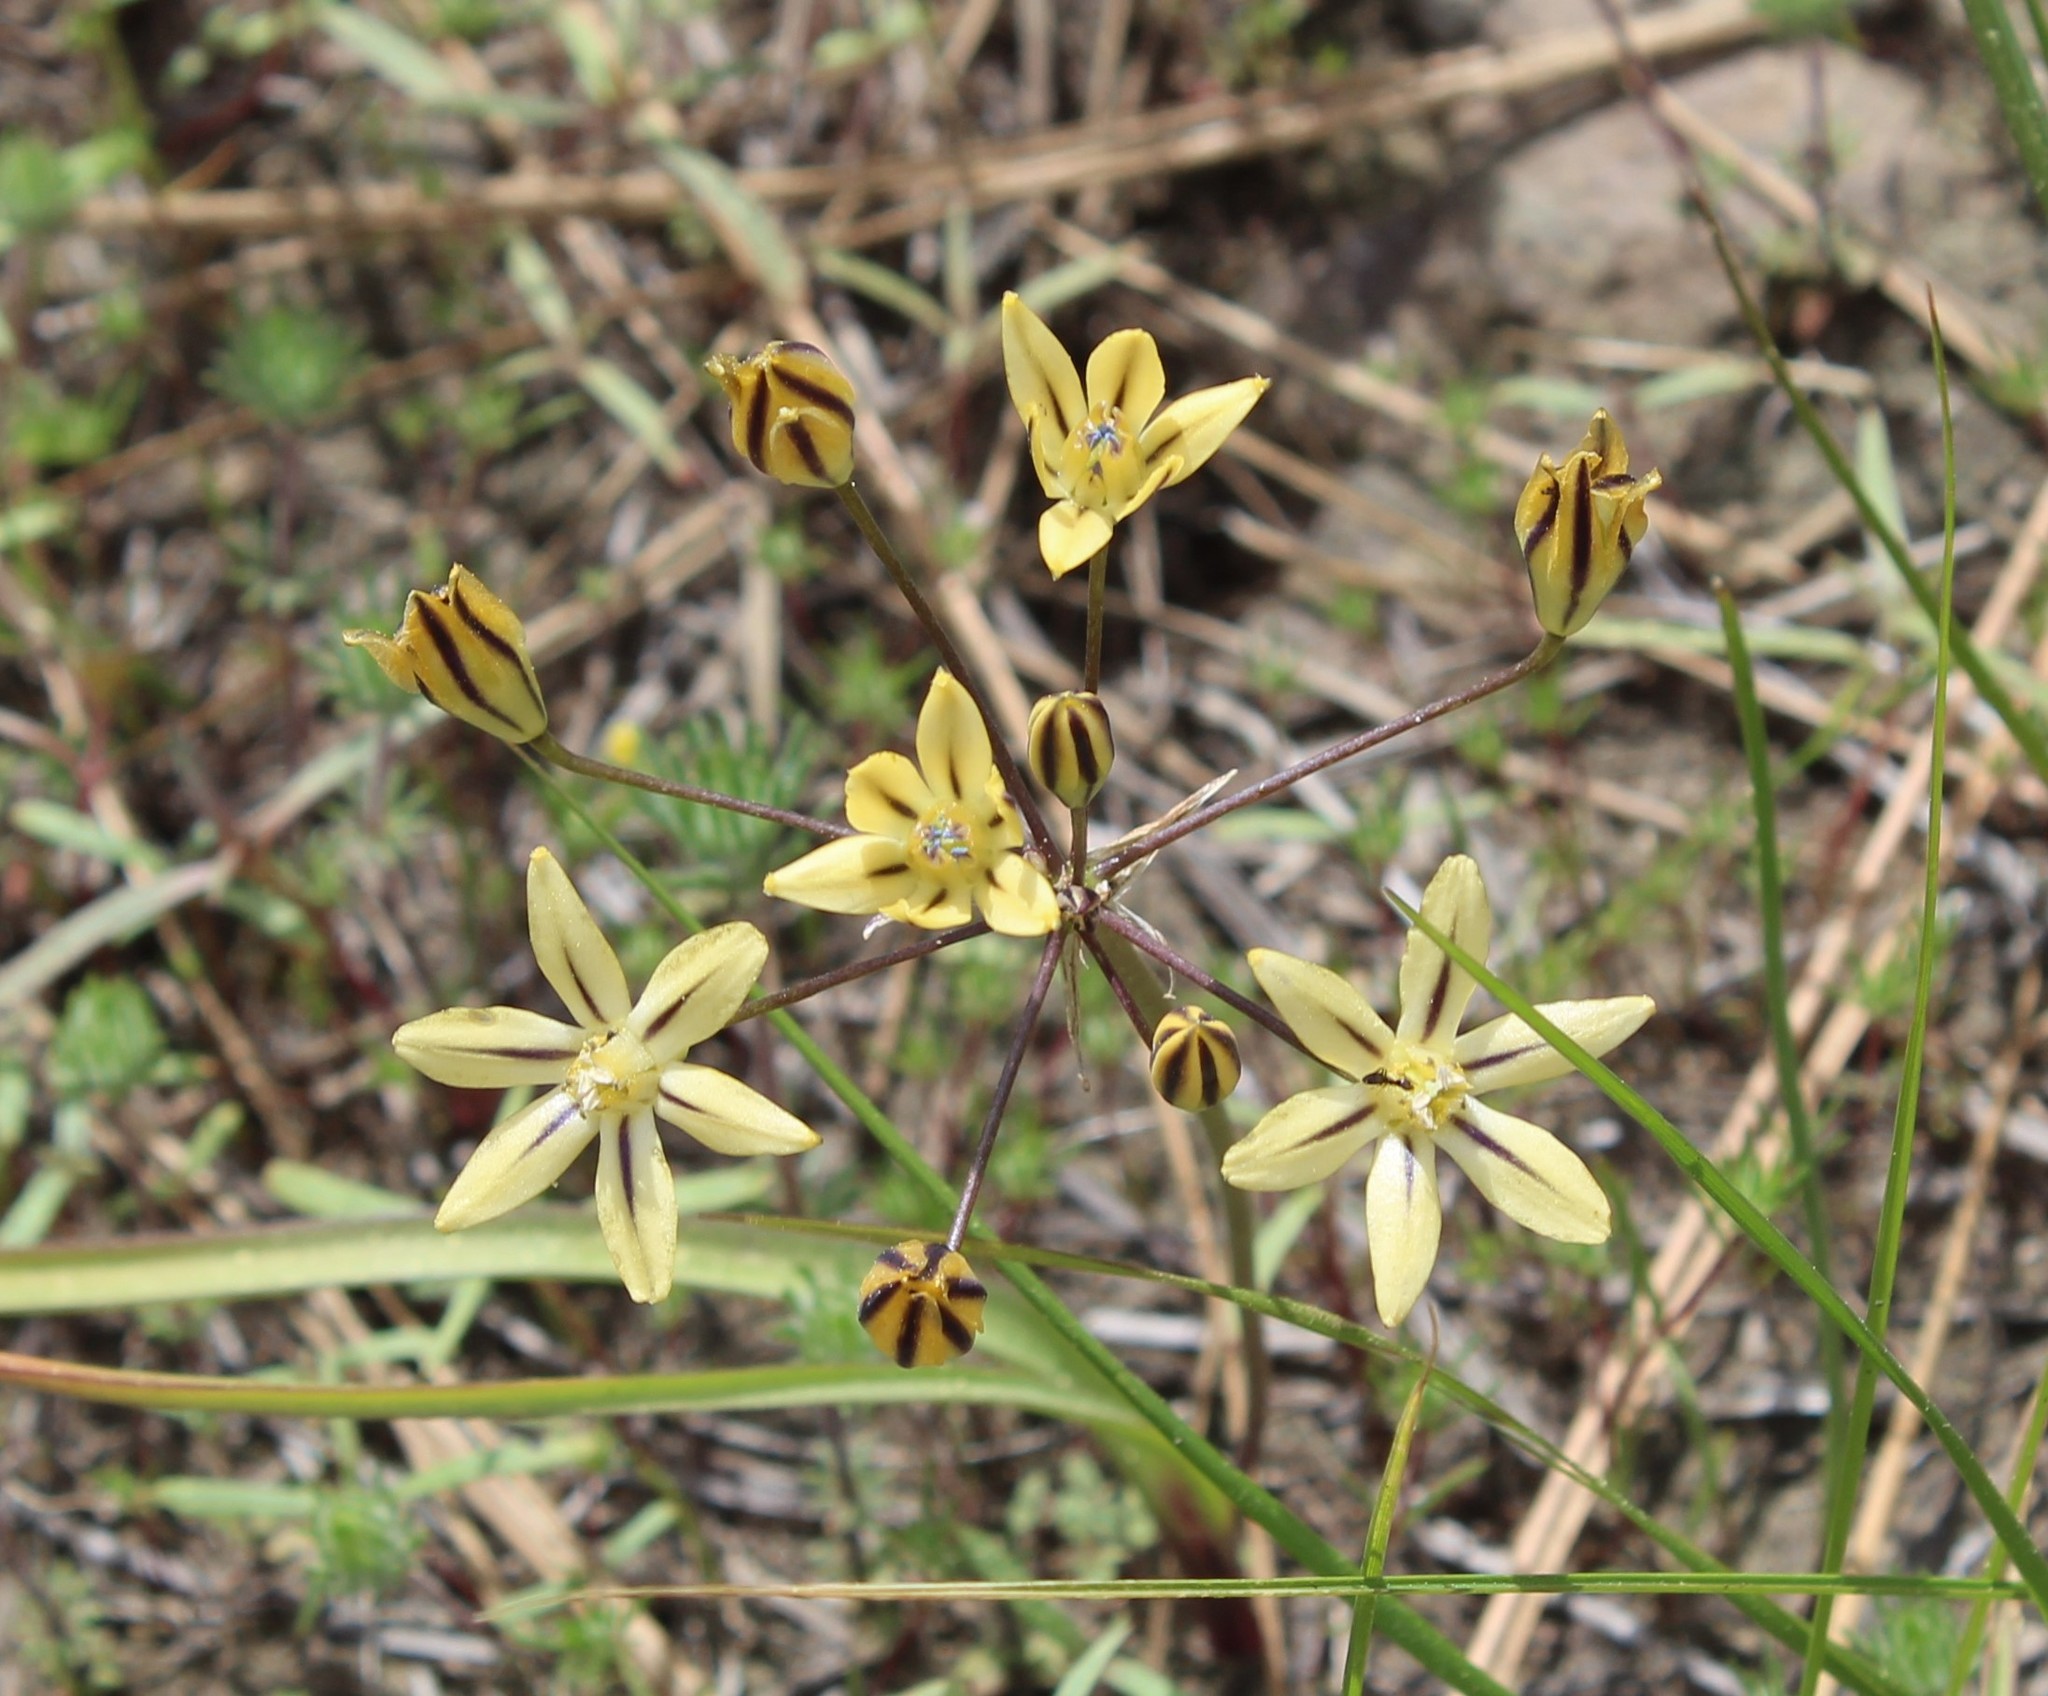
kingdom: Plantae
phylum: Tracheophyta
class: Liliopsida
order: Asparagales
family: Asparagaceae
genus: Triteleia
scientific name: Triteleia ixioides
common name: Yellow-brodiaea
